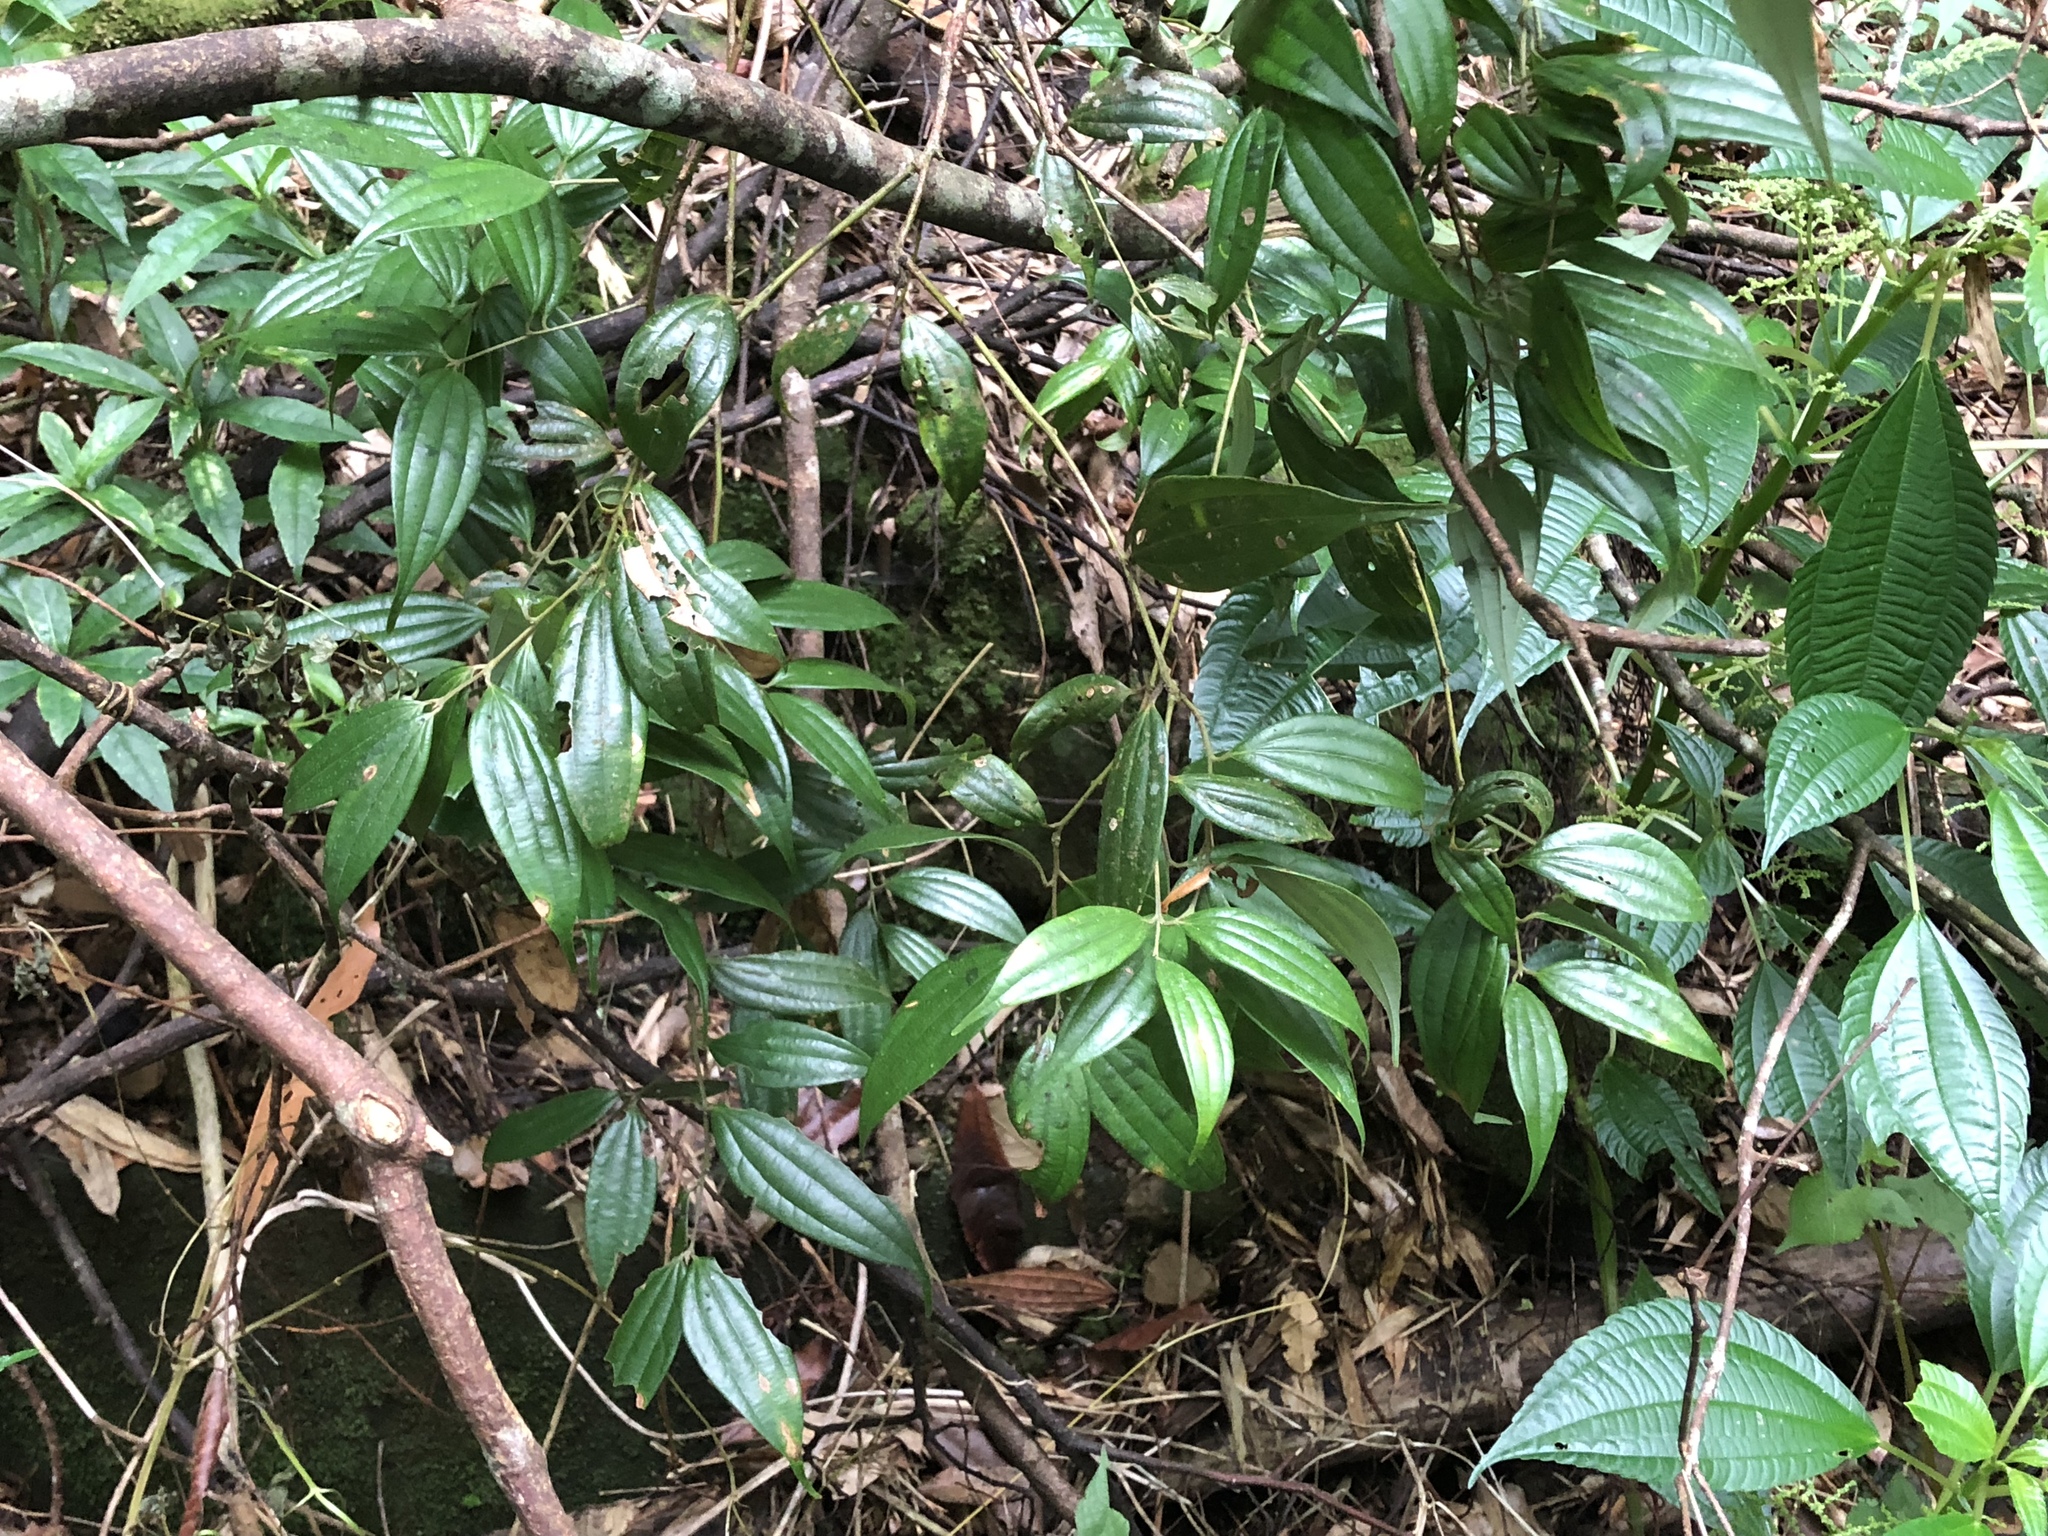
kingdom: Plantae
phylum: Tracheophyta
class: Magnoliopsida
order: Laurales
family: Lauraceae
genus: Cinnamomum
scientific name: Cinnamomum subavenium
